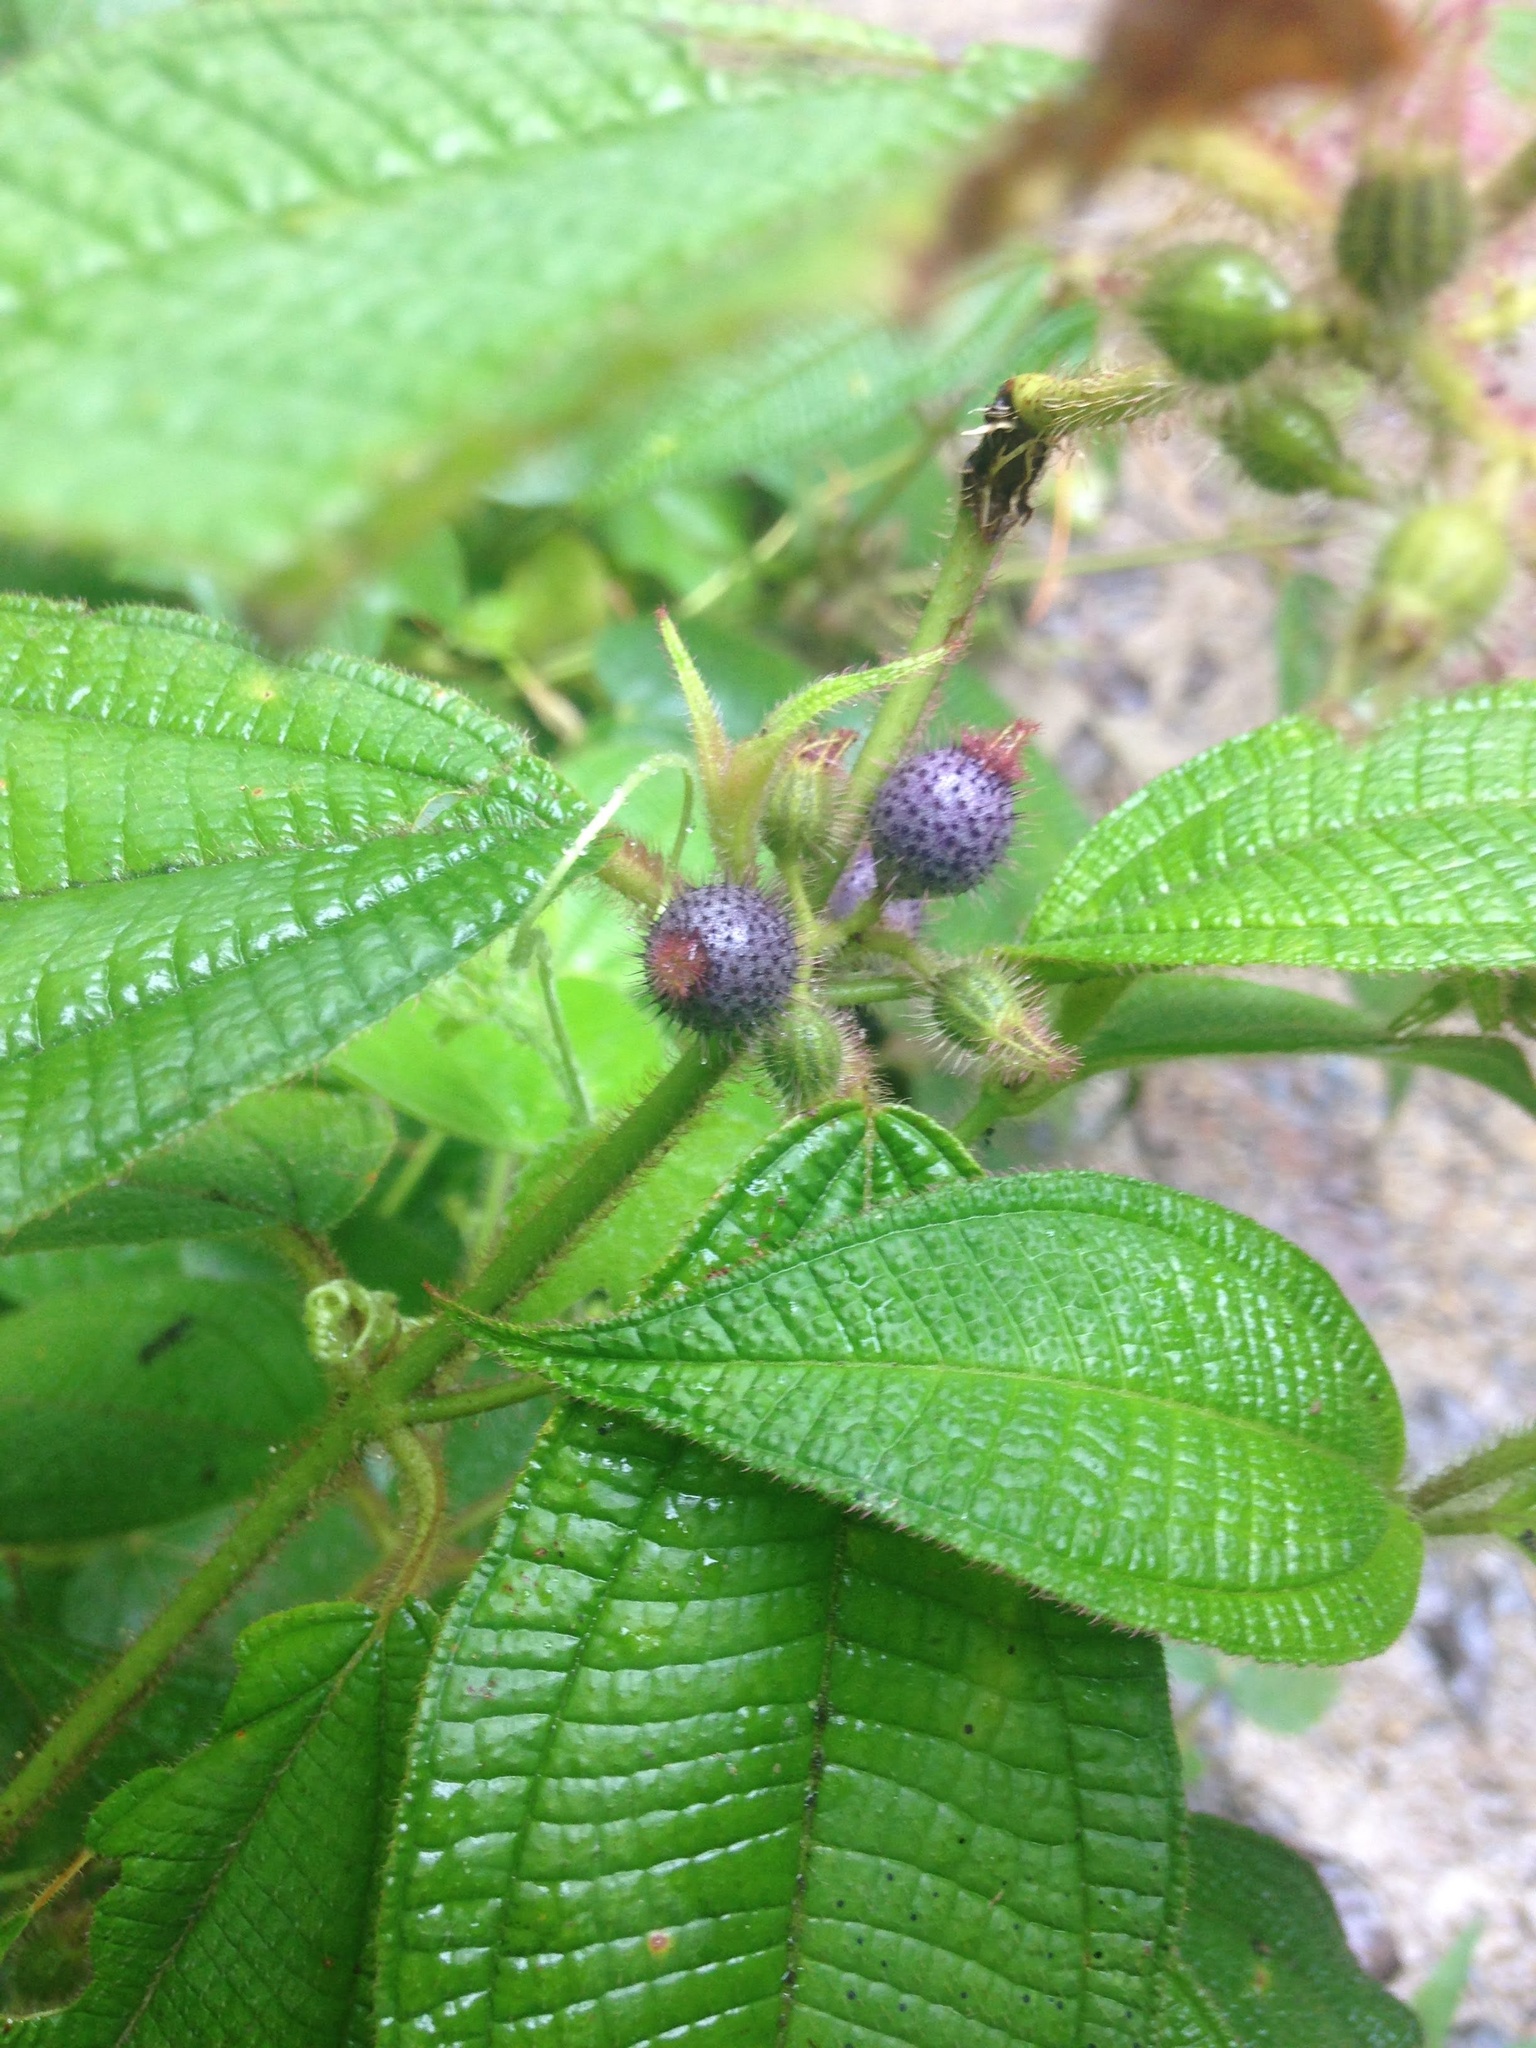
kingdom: Plantae
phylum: Tracheophyta
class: Magnoliopsida
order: Myrtales
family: Melastomataceae
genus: Miconia
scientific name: Miconia crenata
